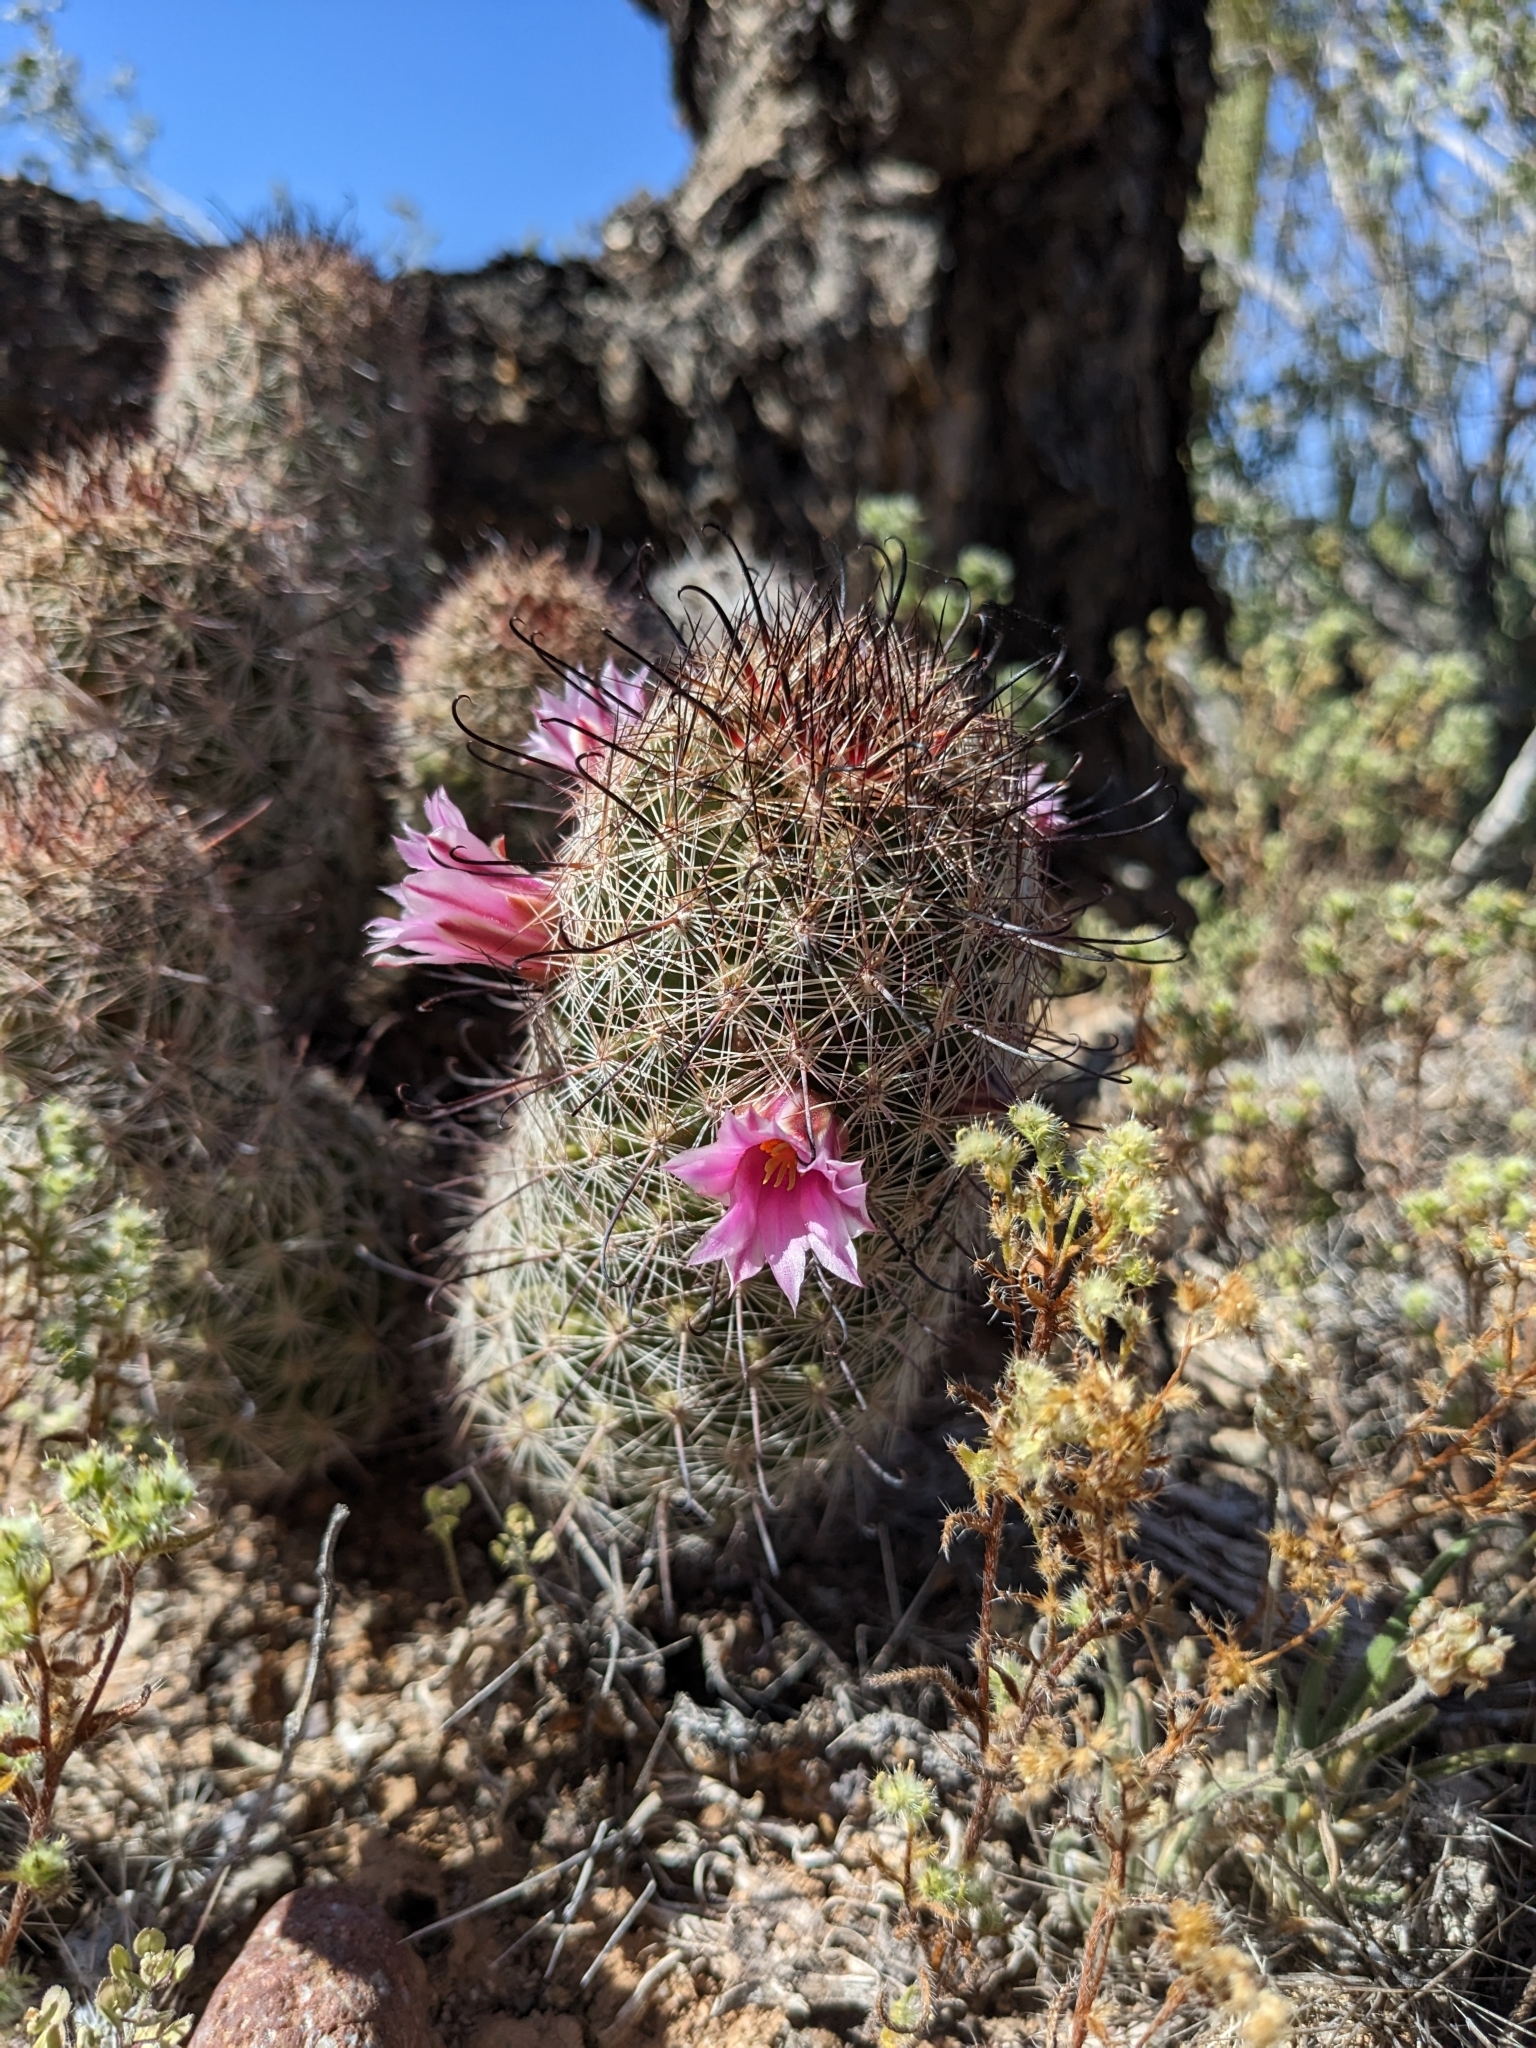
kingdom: Plantae
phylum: Tracheophyta
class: Magnoliopsida
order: Caryophyllales
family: Cactaceae
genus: Cochemiea
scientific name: Cochemiea grahamii
